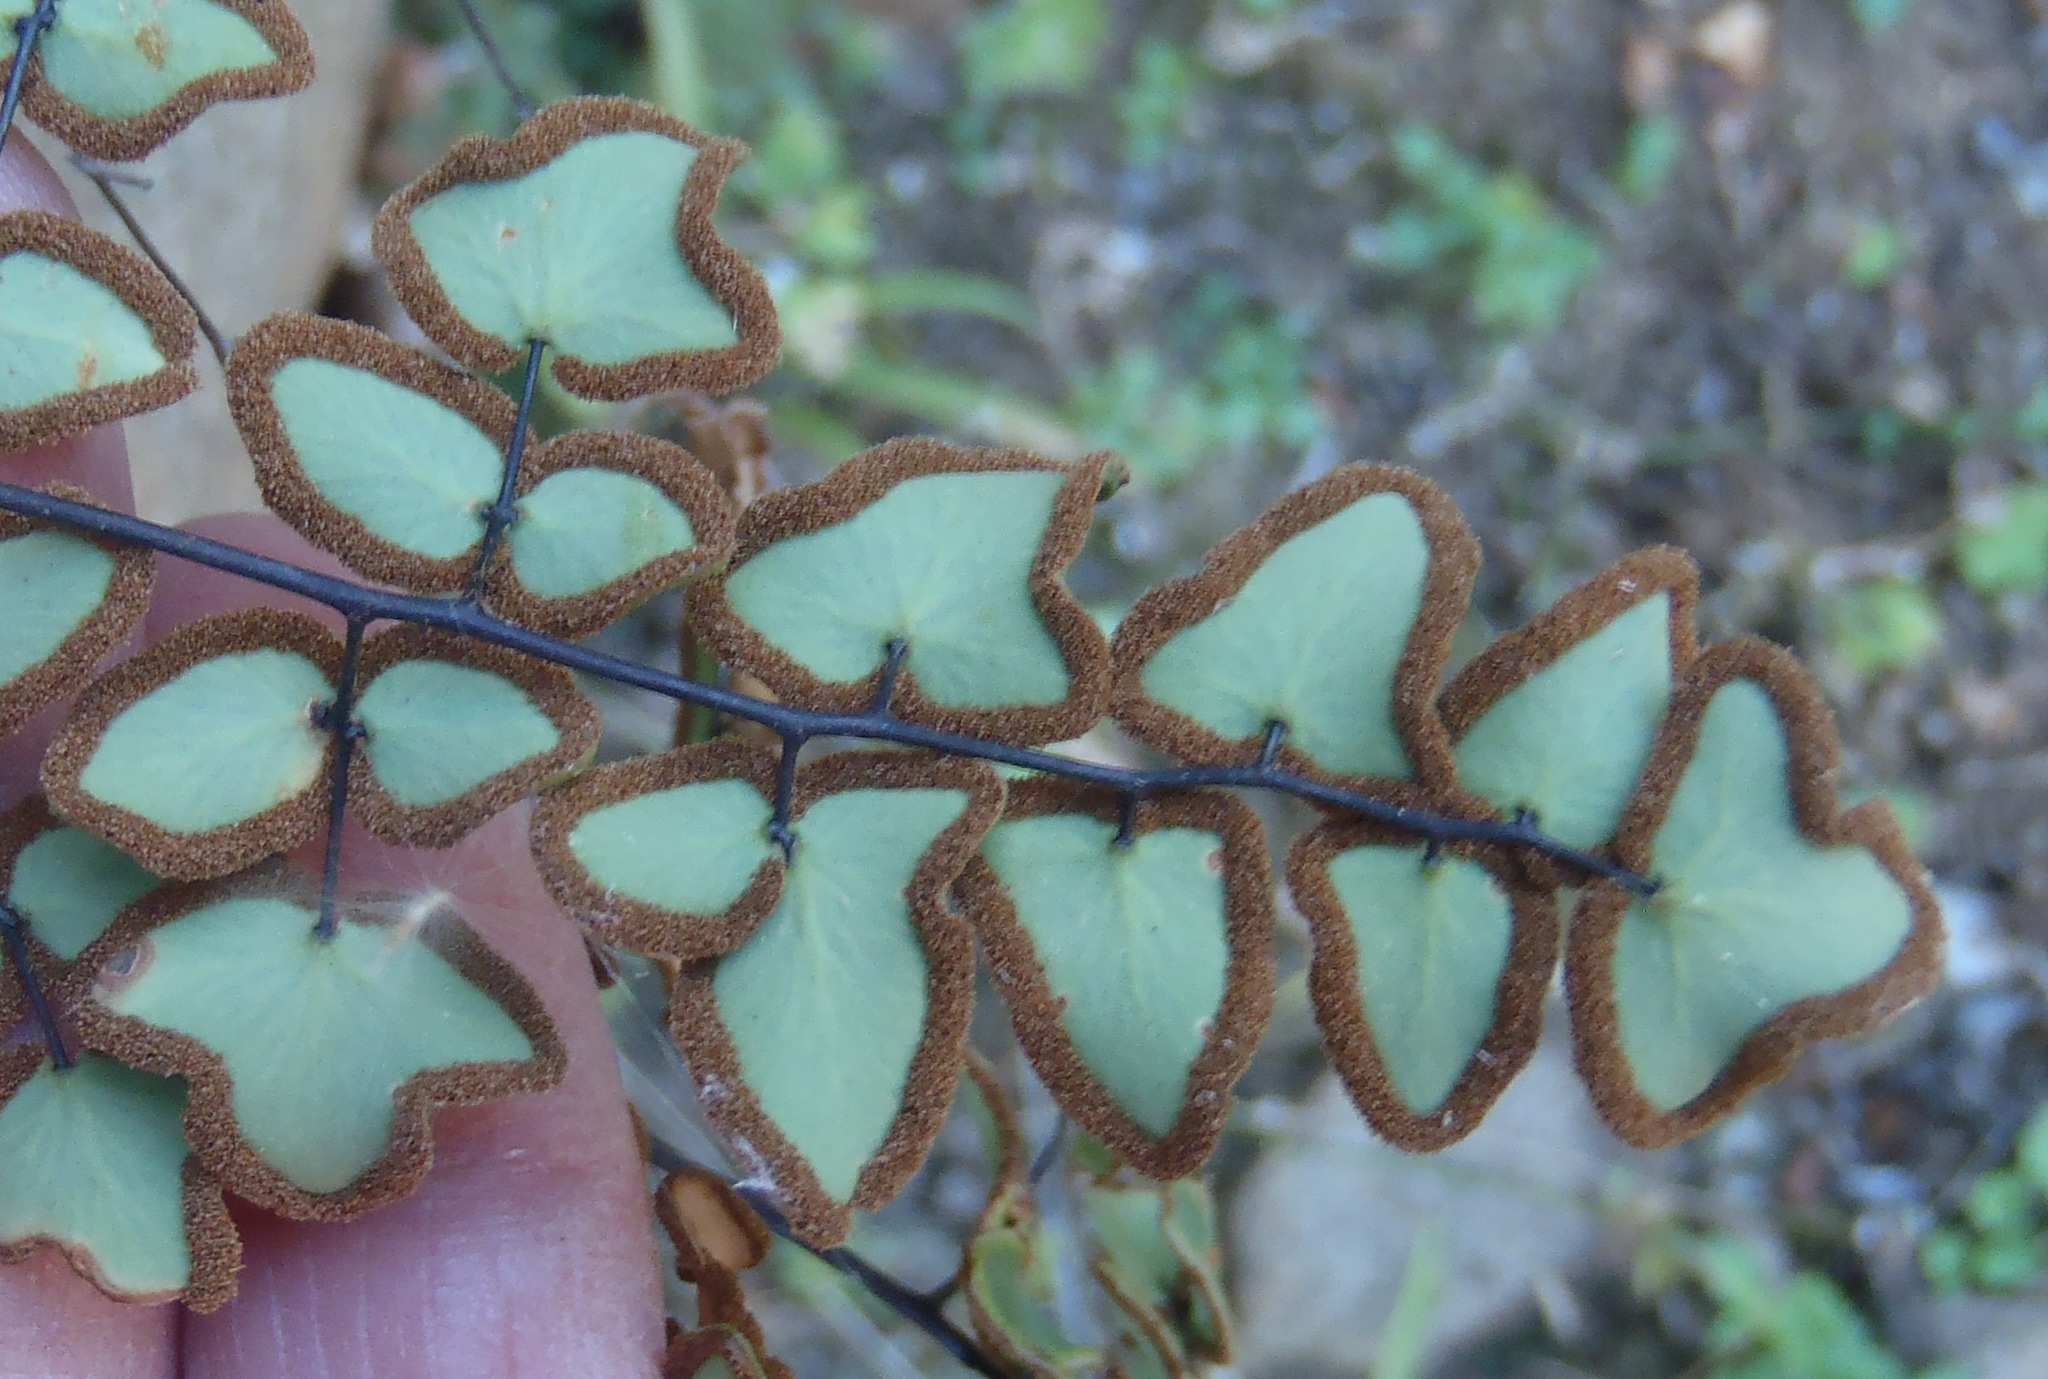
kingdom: Plantae
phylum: Tracheophyta
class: Polypodiopsida
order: Polypodiales
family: Pteridaceae
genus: Pellaea
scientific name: Pellaea calomelanos
